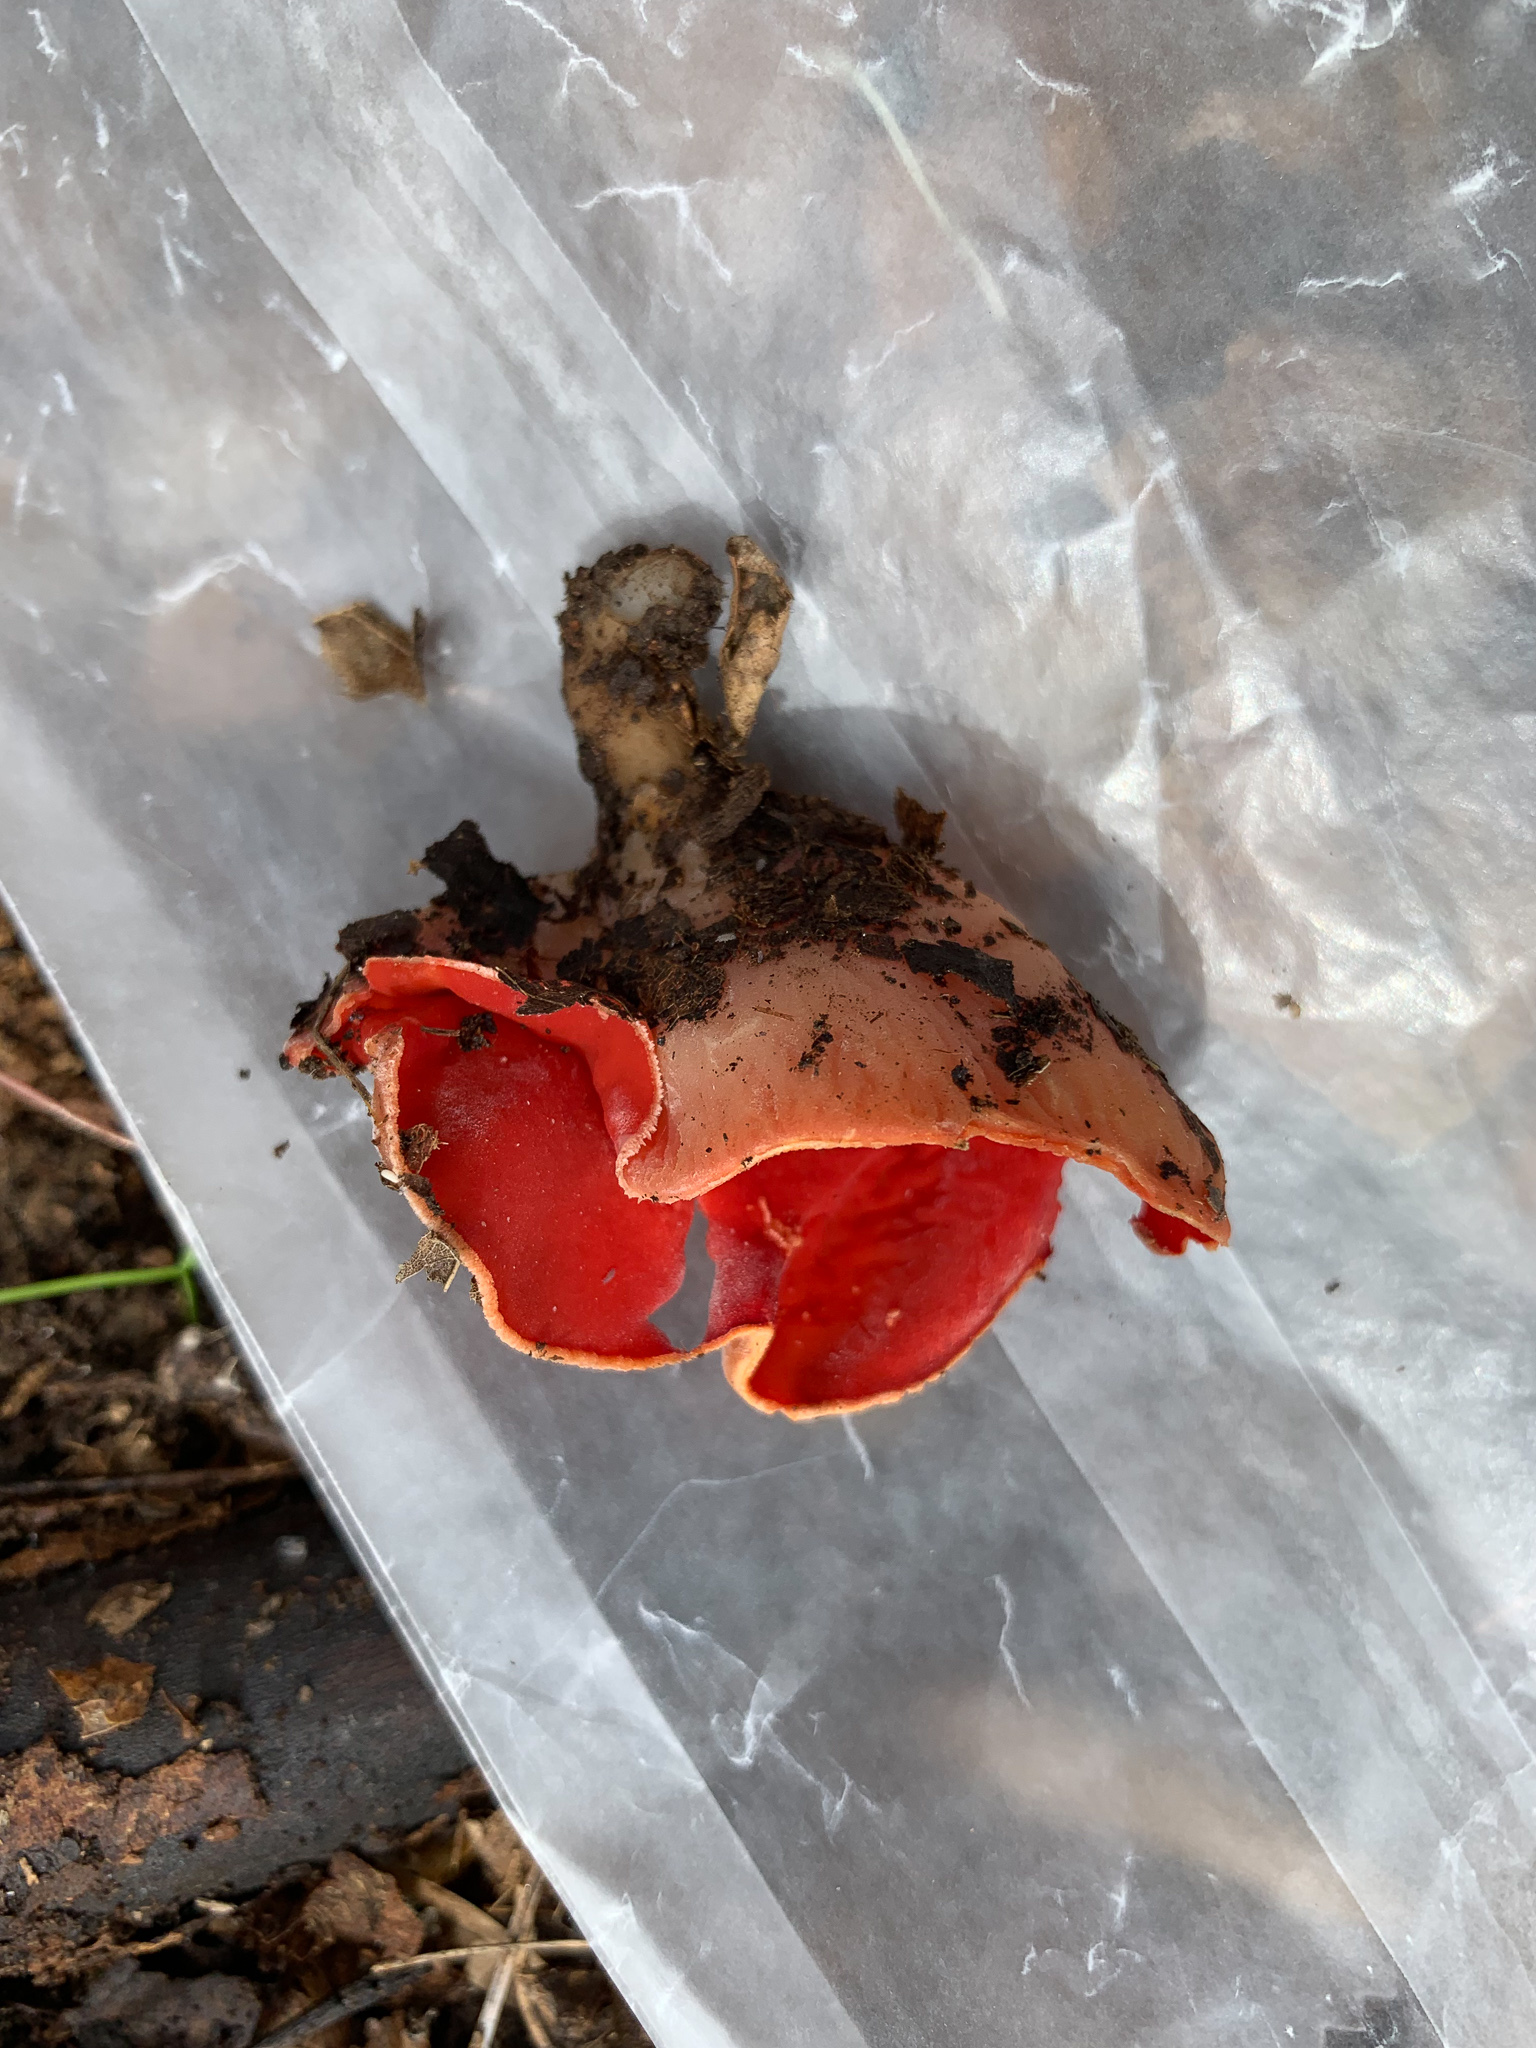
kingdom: Fungi
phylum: Ascomycota
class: Pezizomycetes
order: Pezizales
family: Sarcoscyphaceae
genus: Sarcoscypha
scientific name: Sarcoscypha austriaca
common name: Scarlet elfcup
